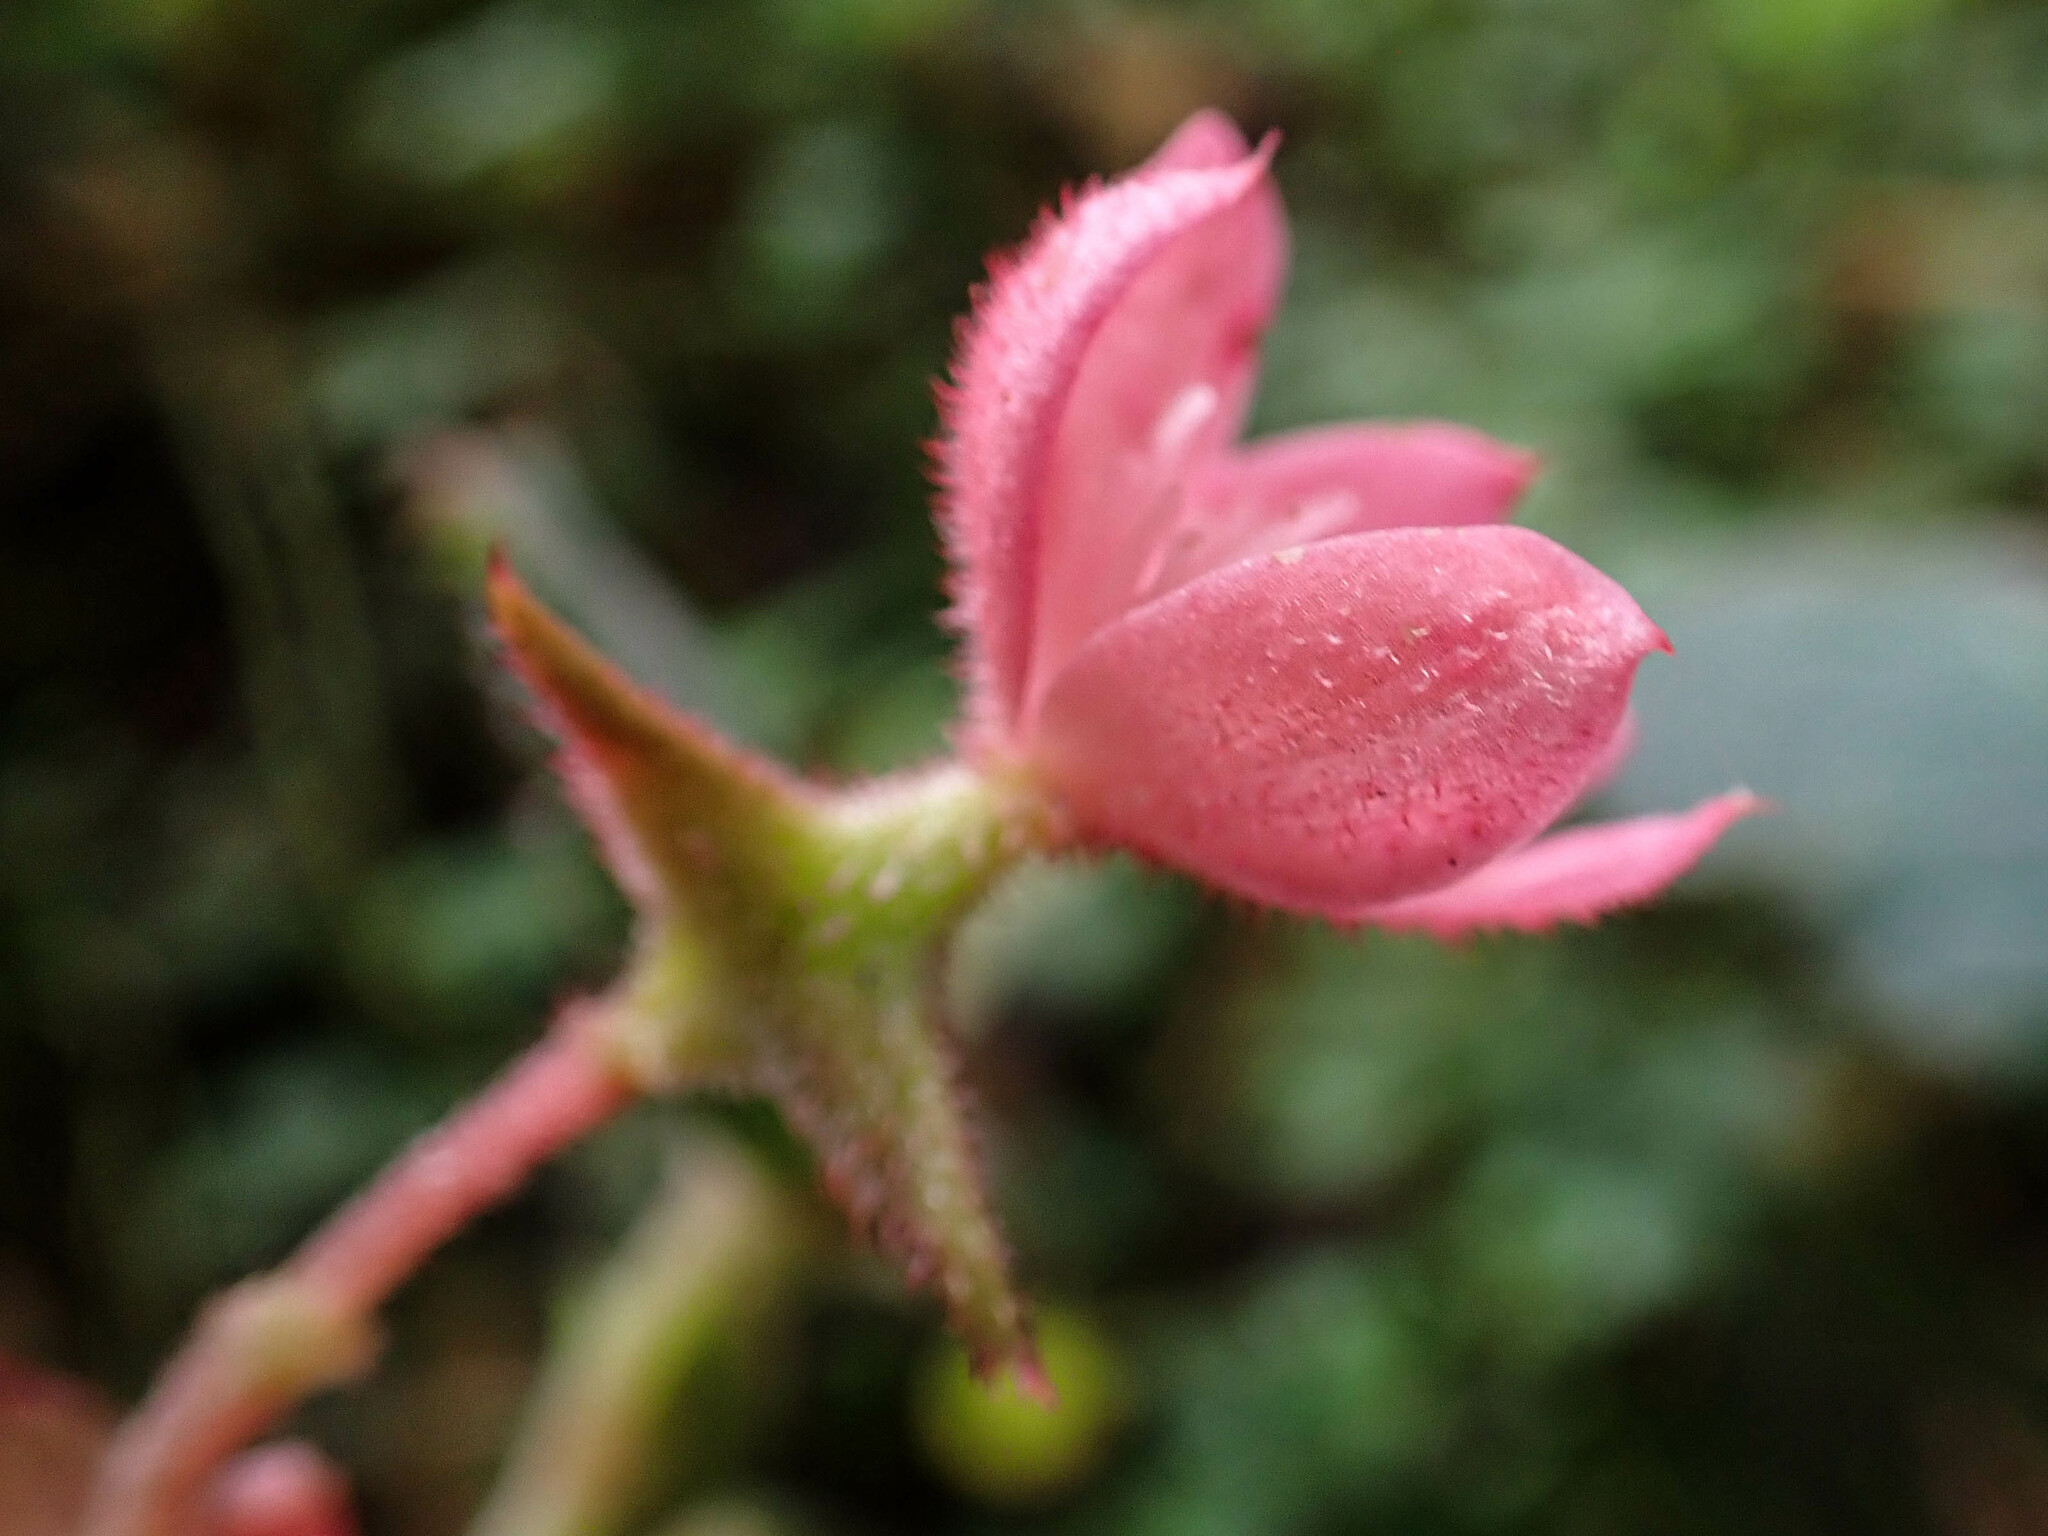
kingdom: Plantae
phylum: Tracheophyta
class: Magnoliopsida
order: Cucurbitales
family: Begoniaceae
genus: Begonia
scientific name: Begonia ferruginea
